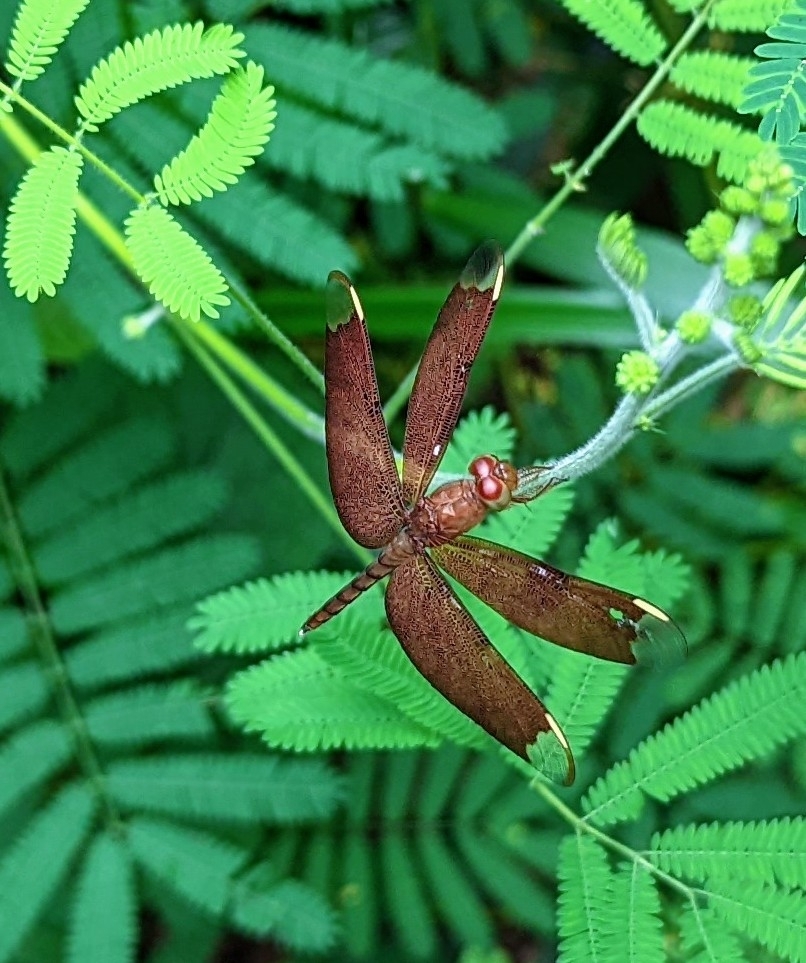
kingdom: Animalia
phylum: Arthropoda
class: Insecta
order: Odonata
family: Libellulidae
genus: Neurothemis
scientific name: Neurothemis fulvia
